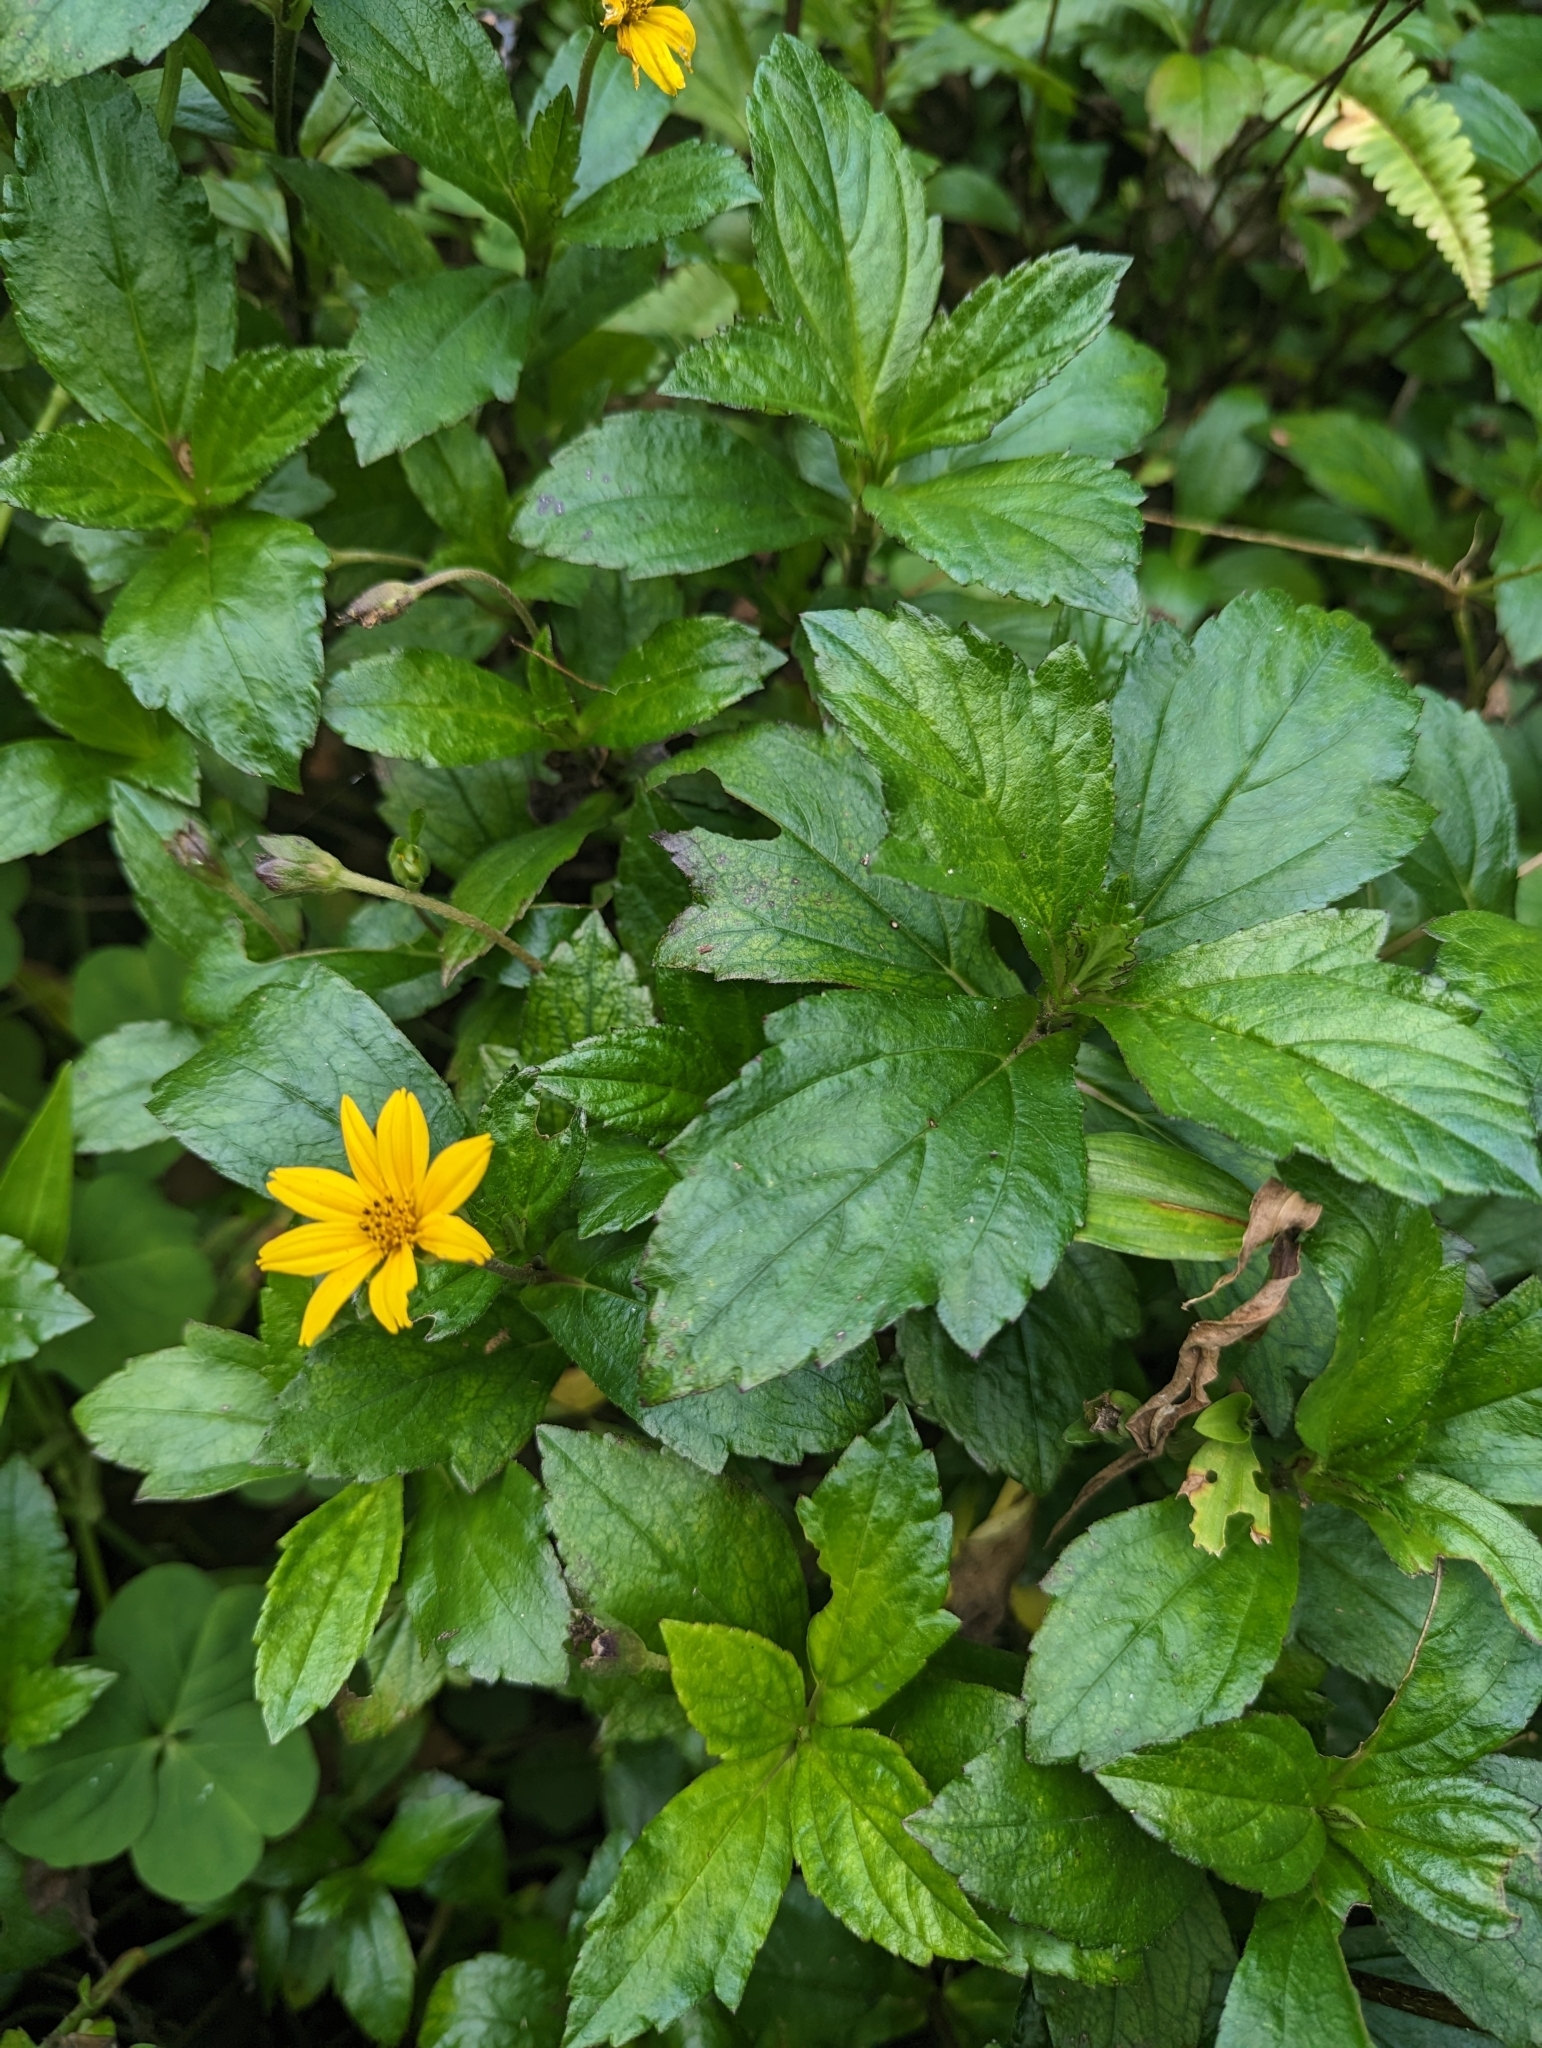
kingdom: Plantae
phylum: Tracheophyta
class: Magnoliopsida
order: Asterales
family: Asteraceae
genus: Sphagneticola
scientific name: Sphagneticola trilobata
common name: Bay biscayne creeping-oxeye
